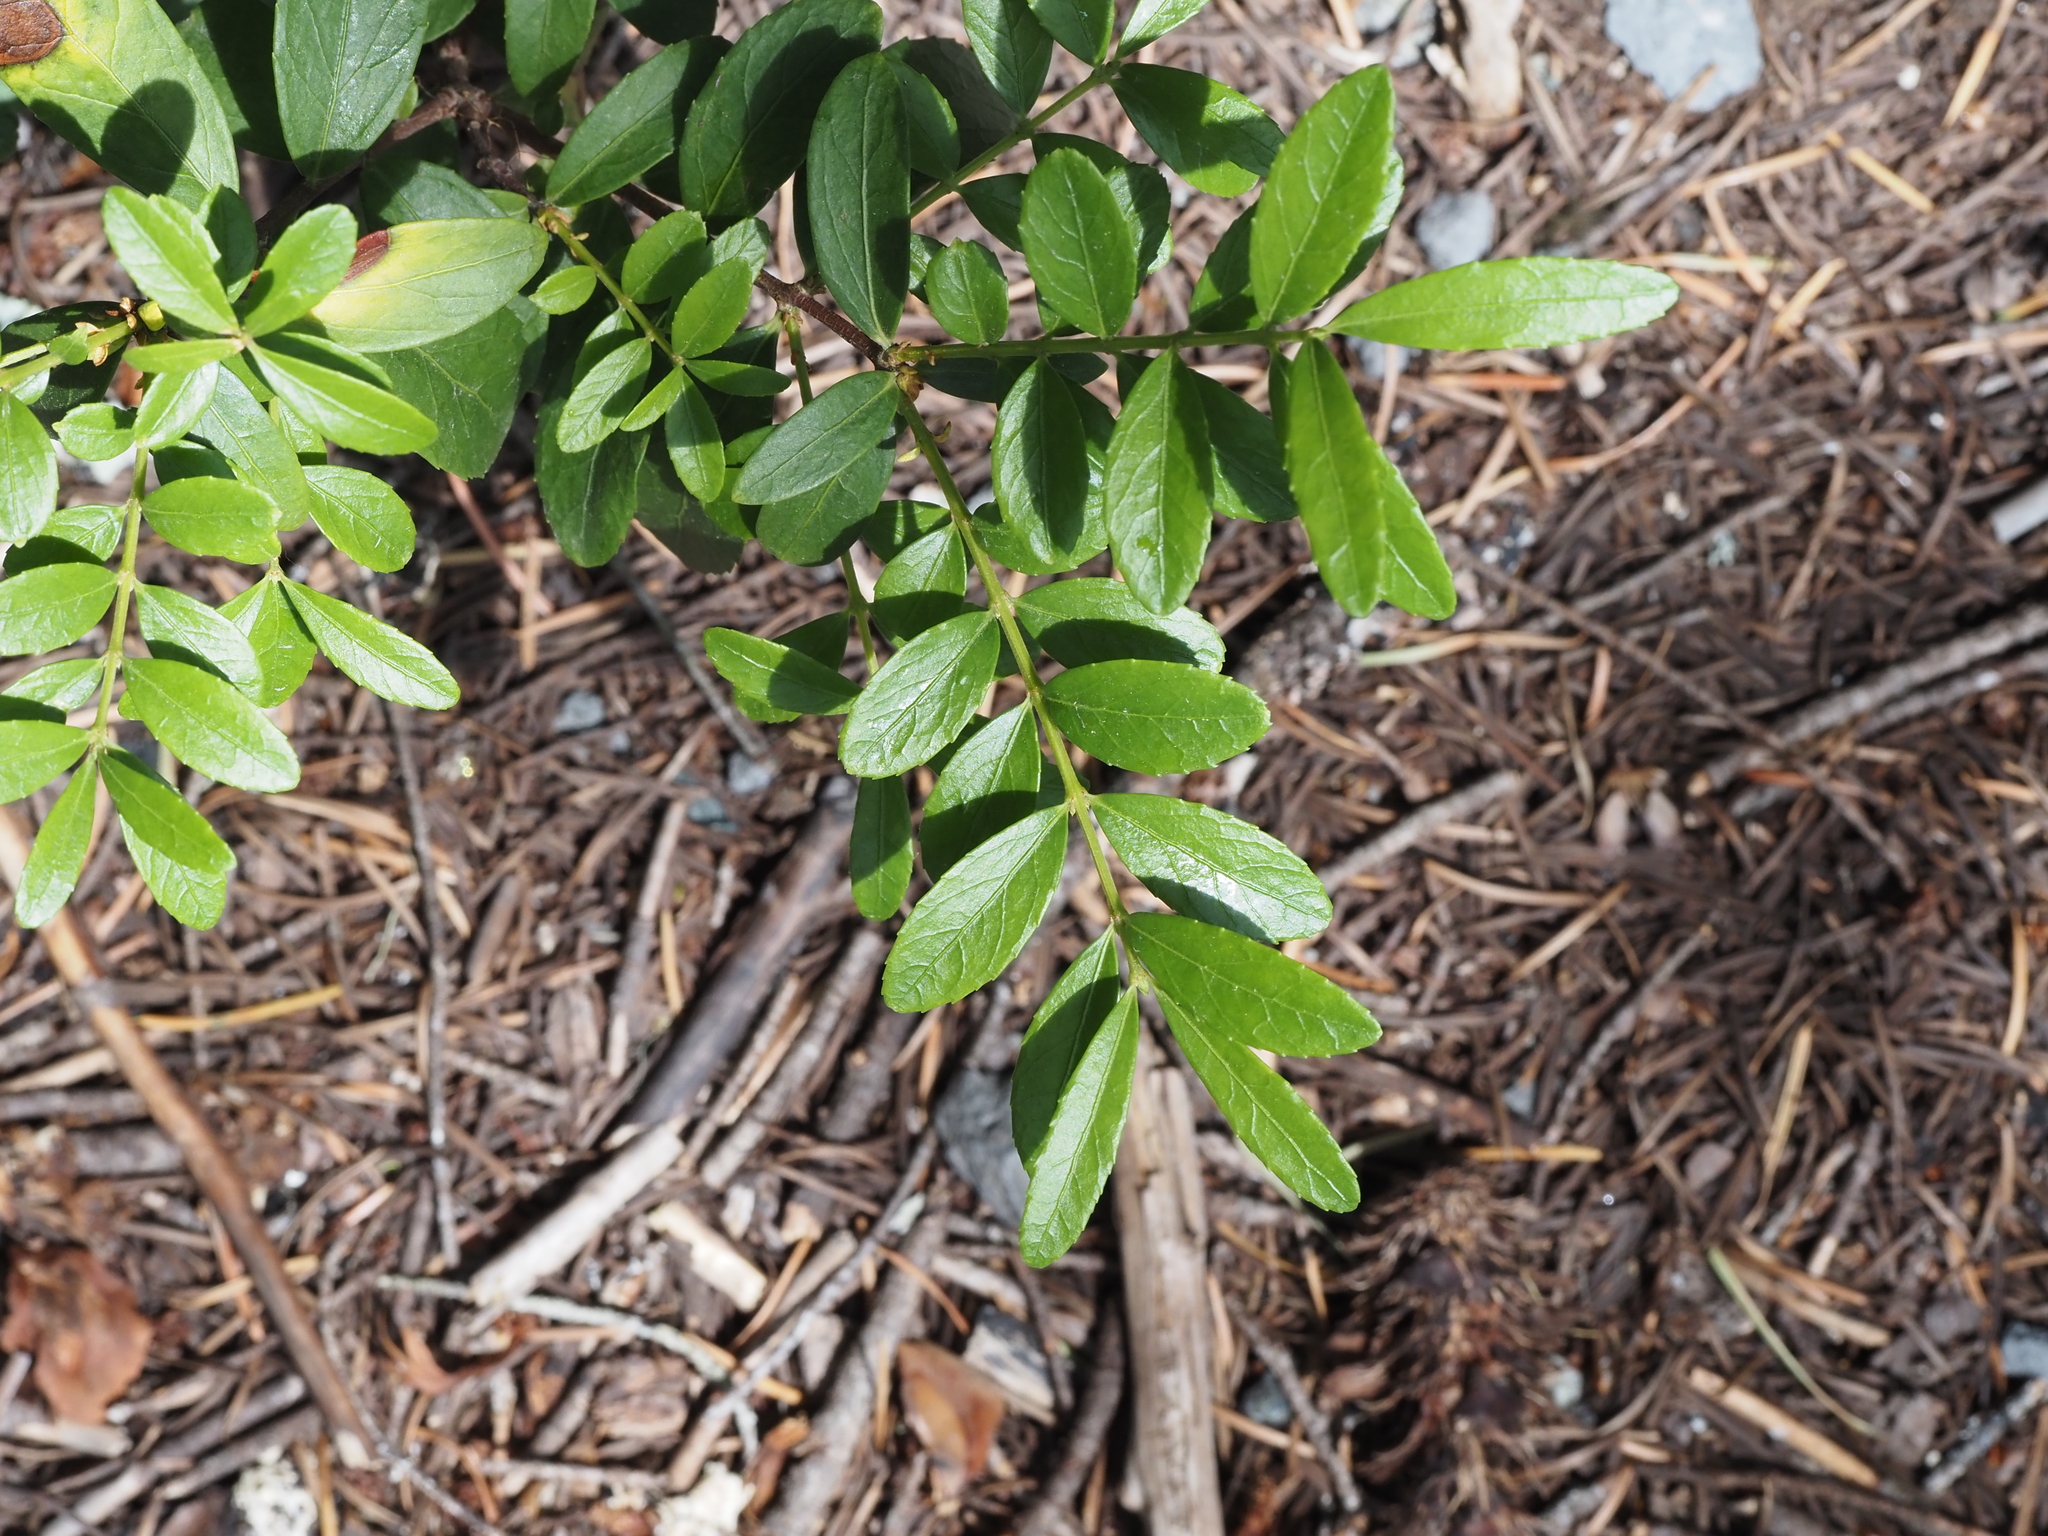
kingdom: Plantae
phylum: Tracheophyta
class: Magnoliopsida
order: Celastrales
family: Celastraceae
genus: Paxistima
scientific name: Paxistima myrsinites
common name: Mountain-lover
